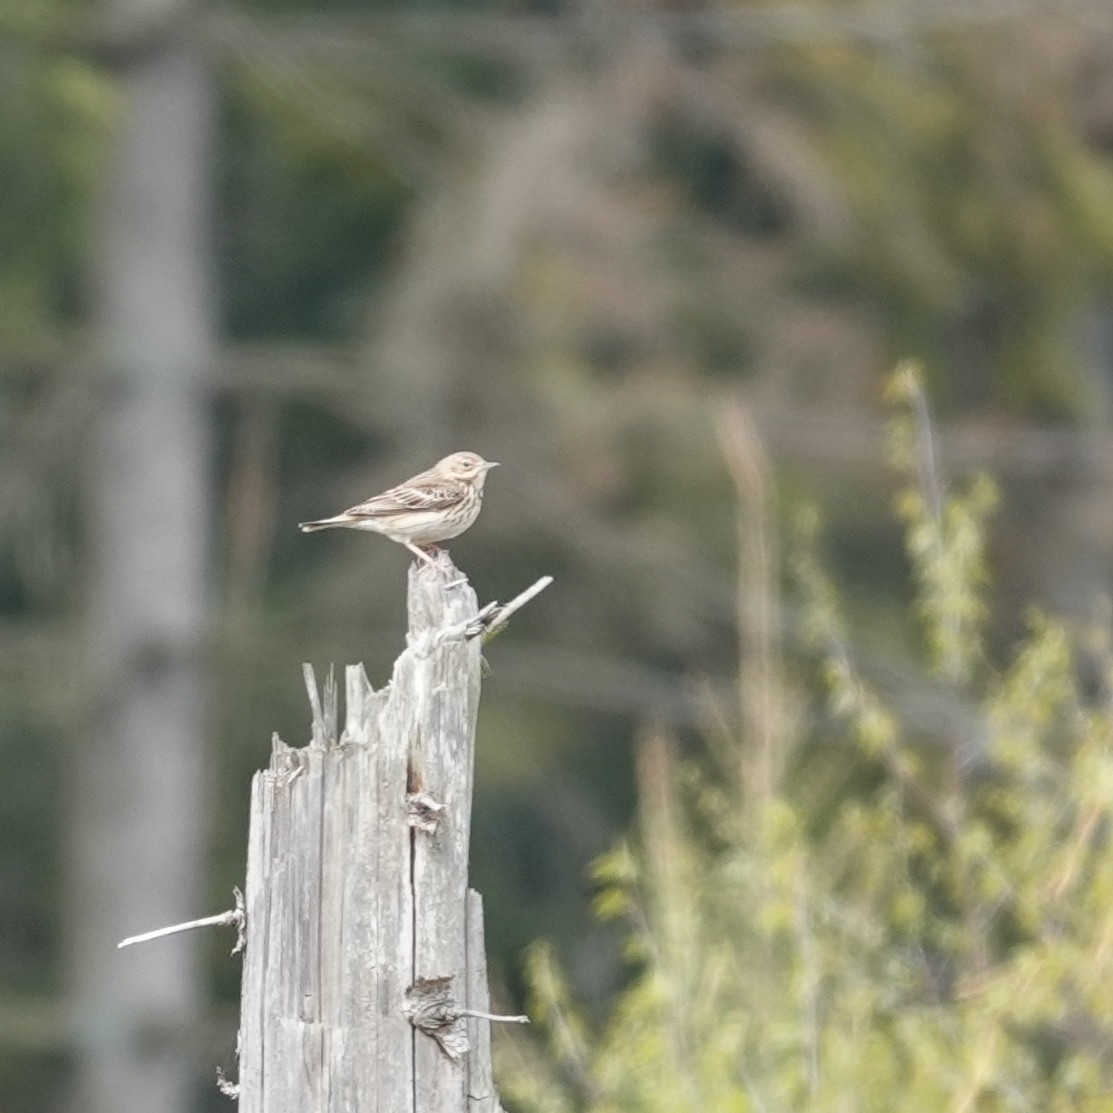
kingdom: Animalia
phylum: Chordata
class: Aves
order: Passeriformes
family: Motacillidae
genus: Anthus
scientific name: Anthus trivialis
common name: Tree pipit
